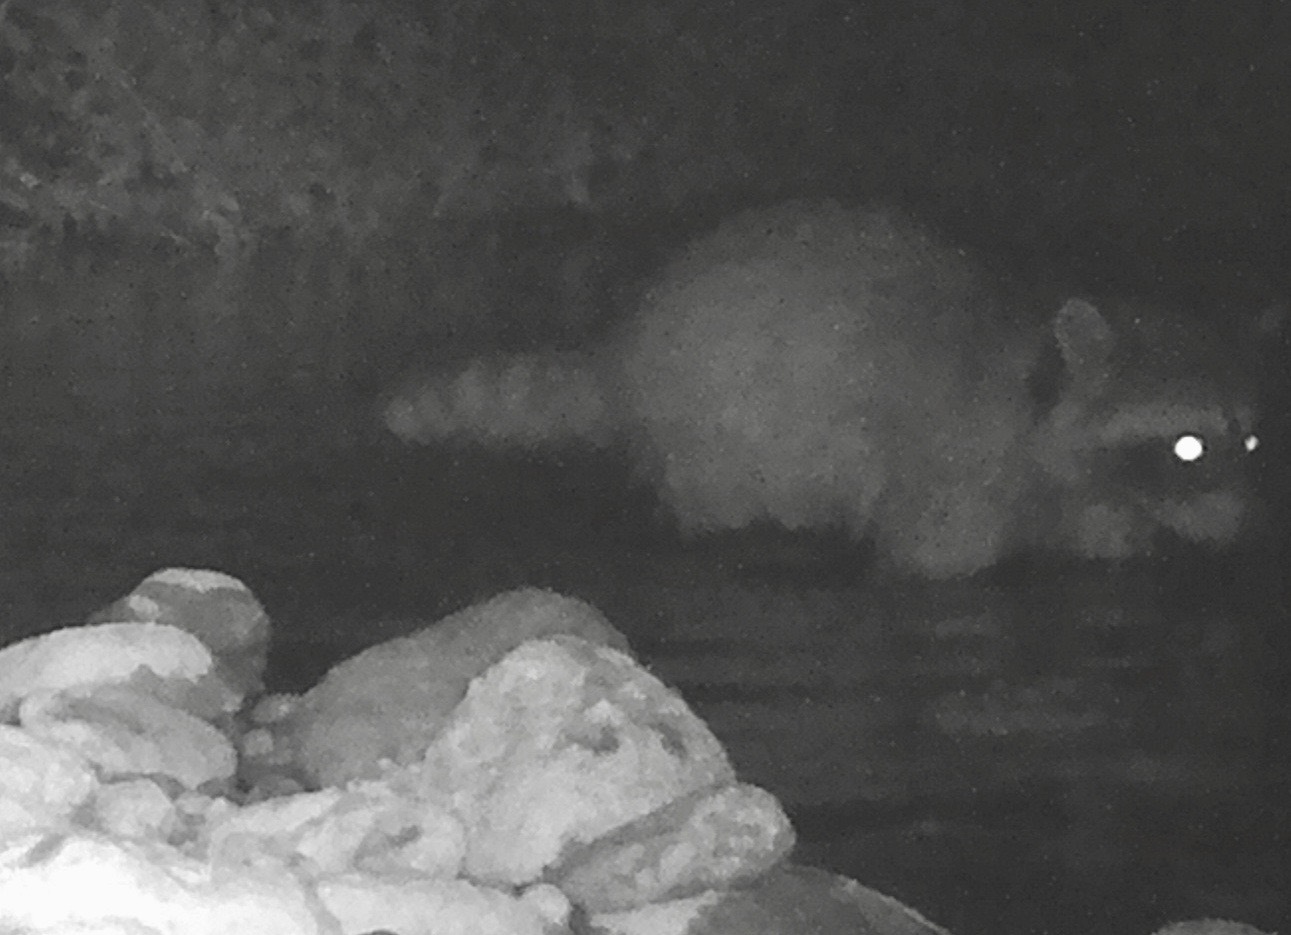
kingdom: Animalia
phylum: Chordata
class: Mammalia
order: Carnivora
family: Procyonidae
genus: Procyon
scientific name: Procyon lotor
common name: Raccoon
